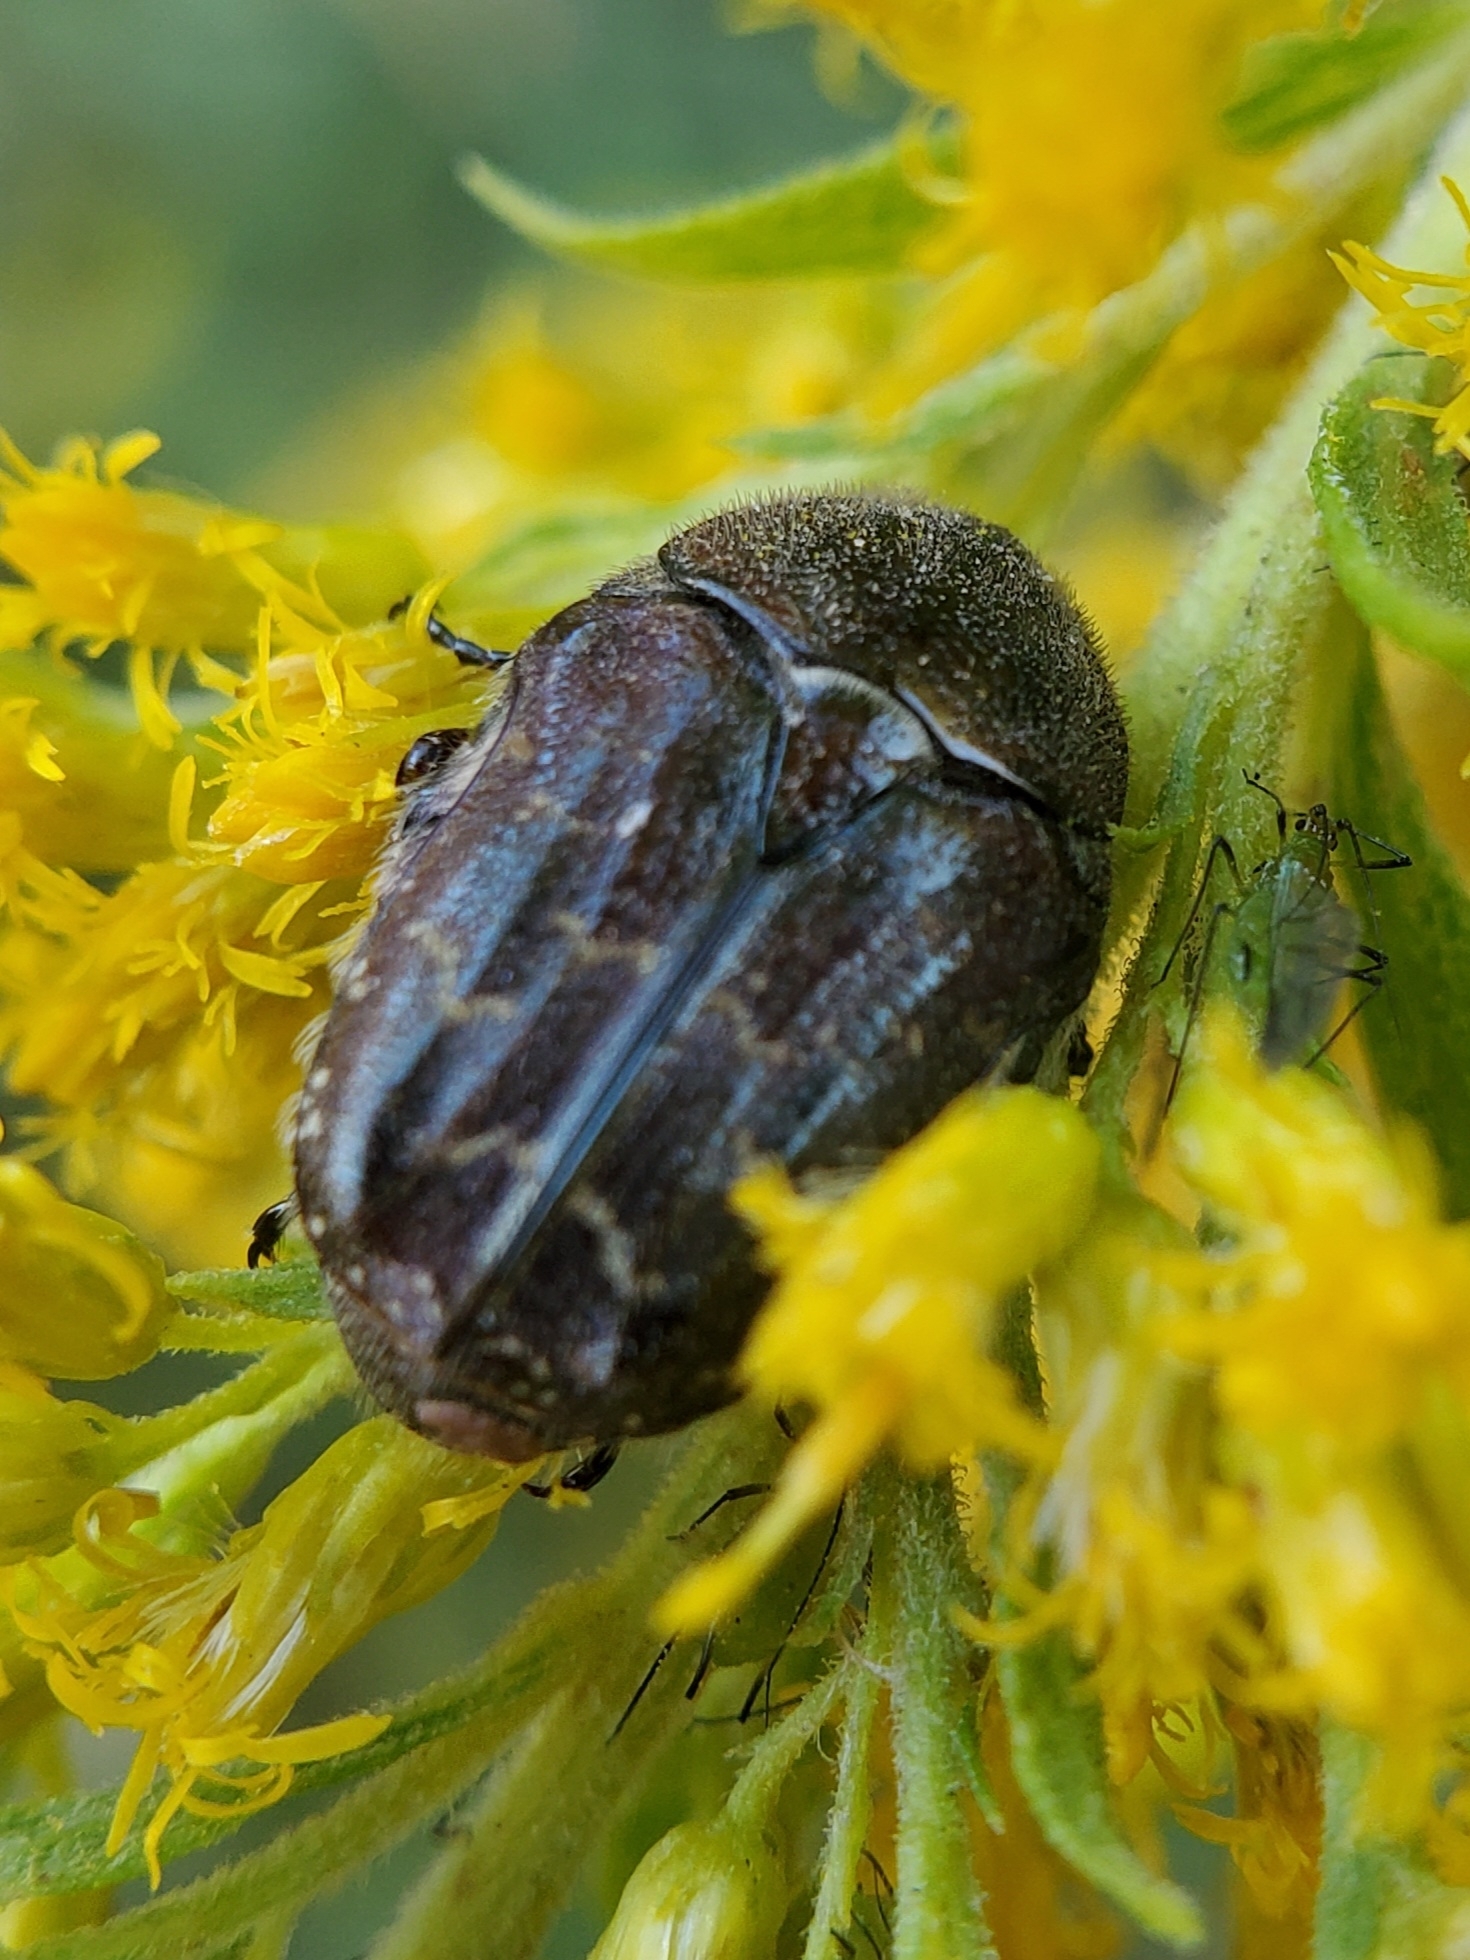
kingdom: Animalia
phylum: Arthropoda
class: Insecta
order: Coleoptera
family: Scarabaeidae
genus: Euphoria
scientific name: Euphoria sepulcralis
